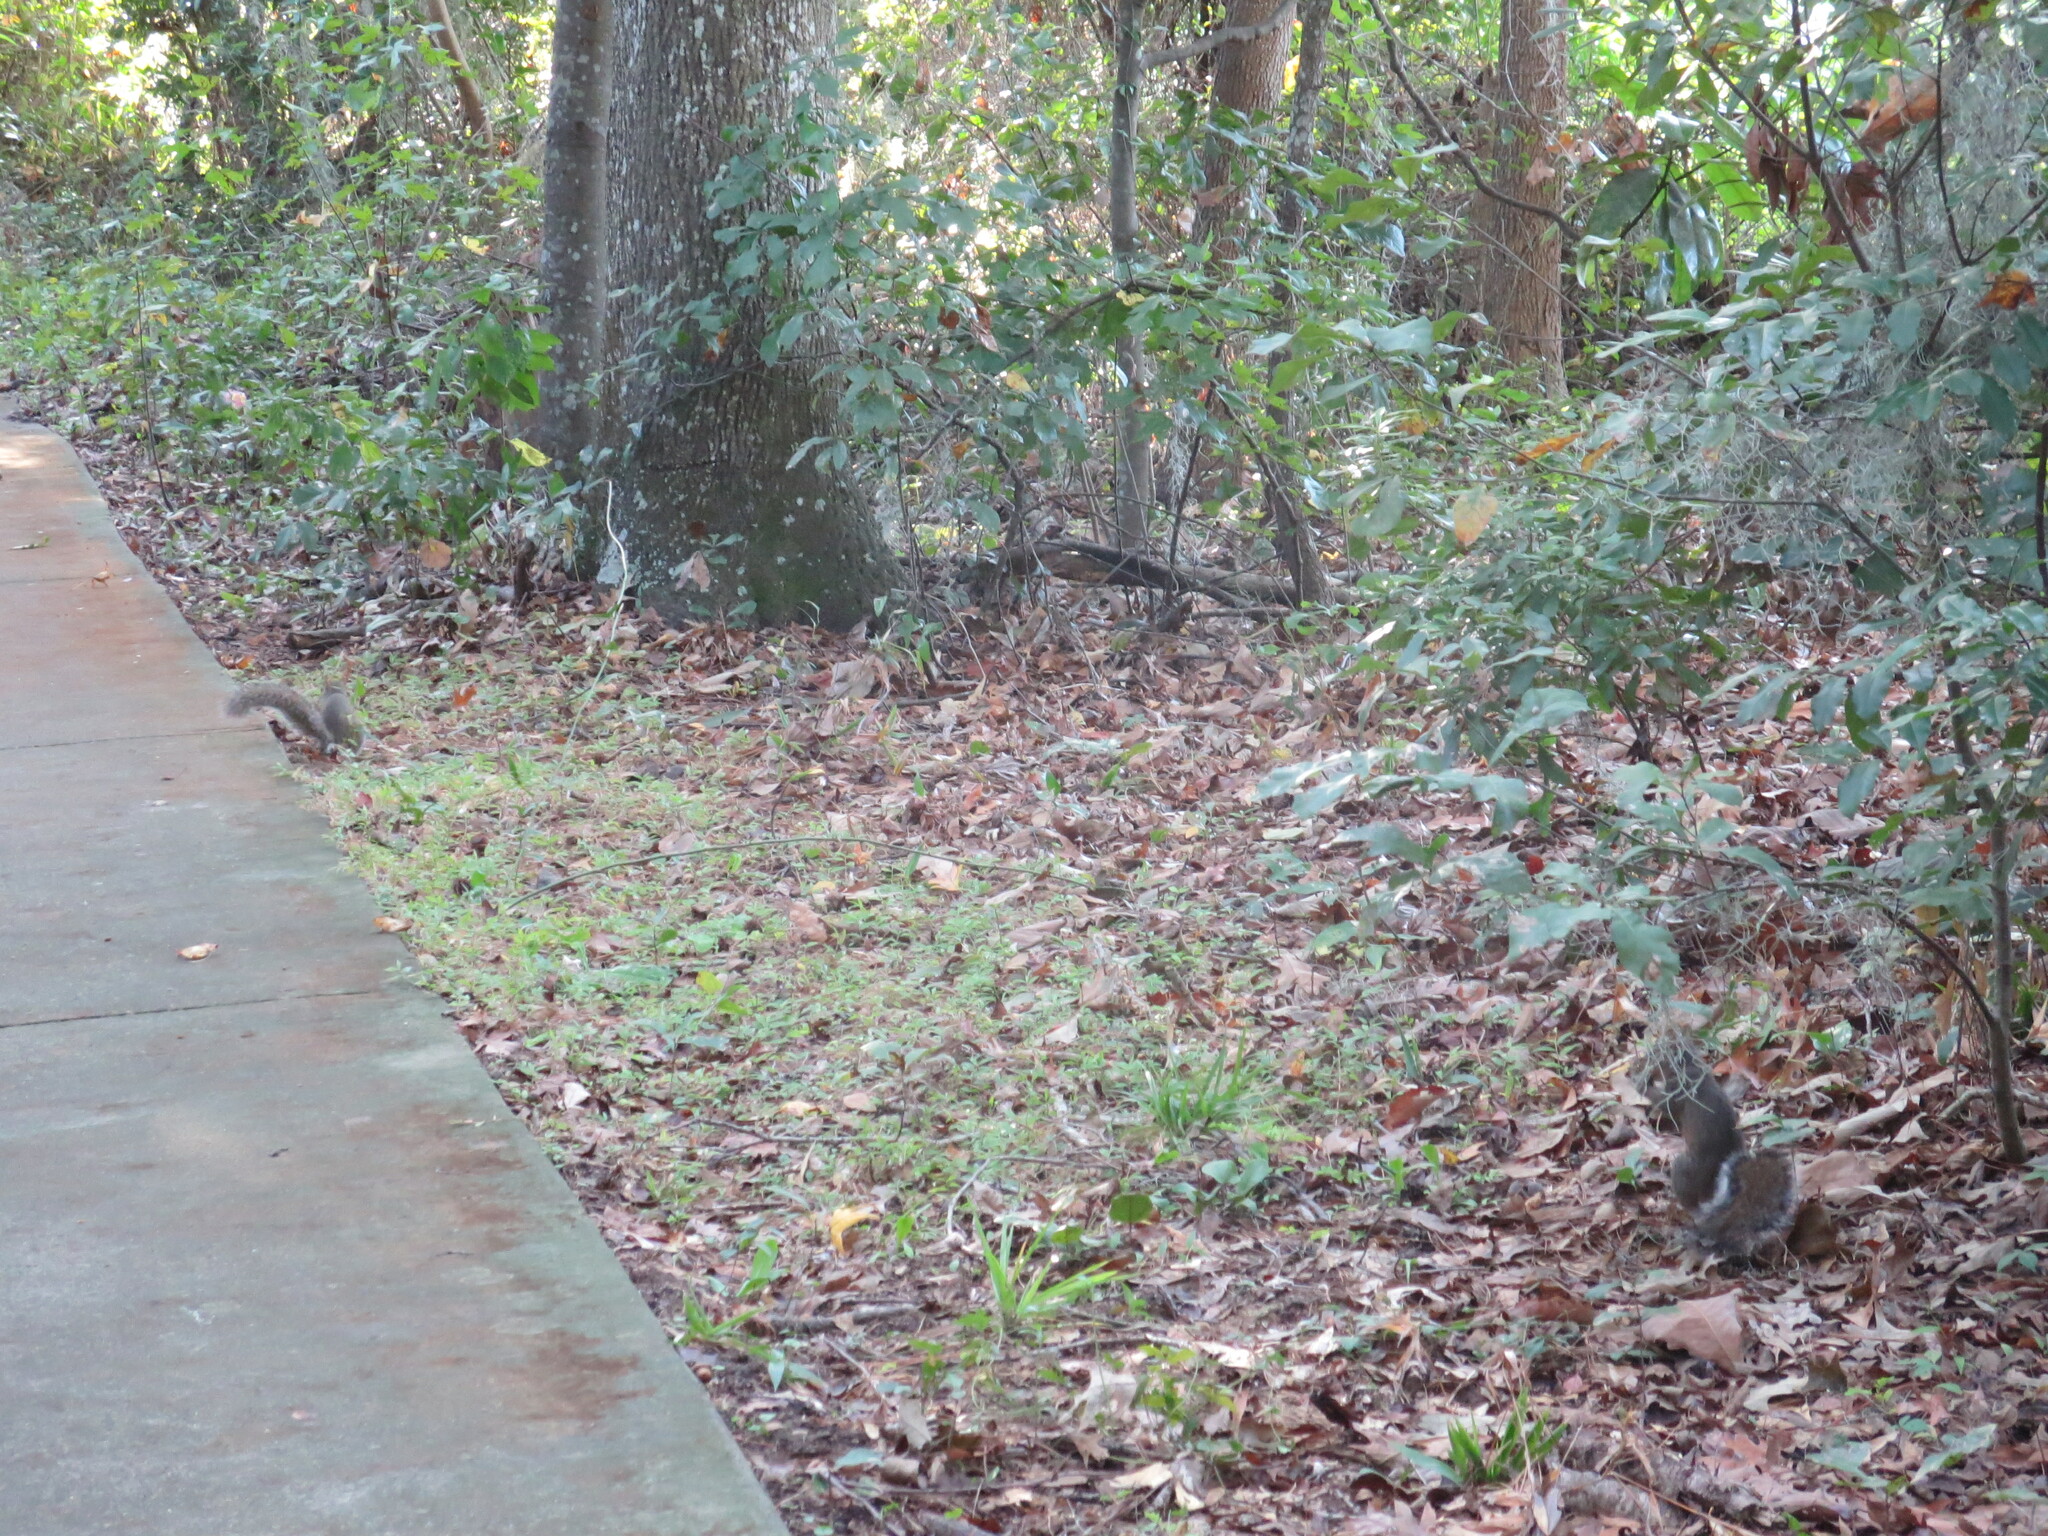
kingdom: Animalia
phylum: Chordata
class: Mammalia
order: Rodentia
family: Sciuridae
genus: Sciurus
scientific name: Sciurus carolinensis
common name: Eastern gray squirrel
